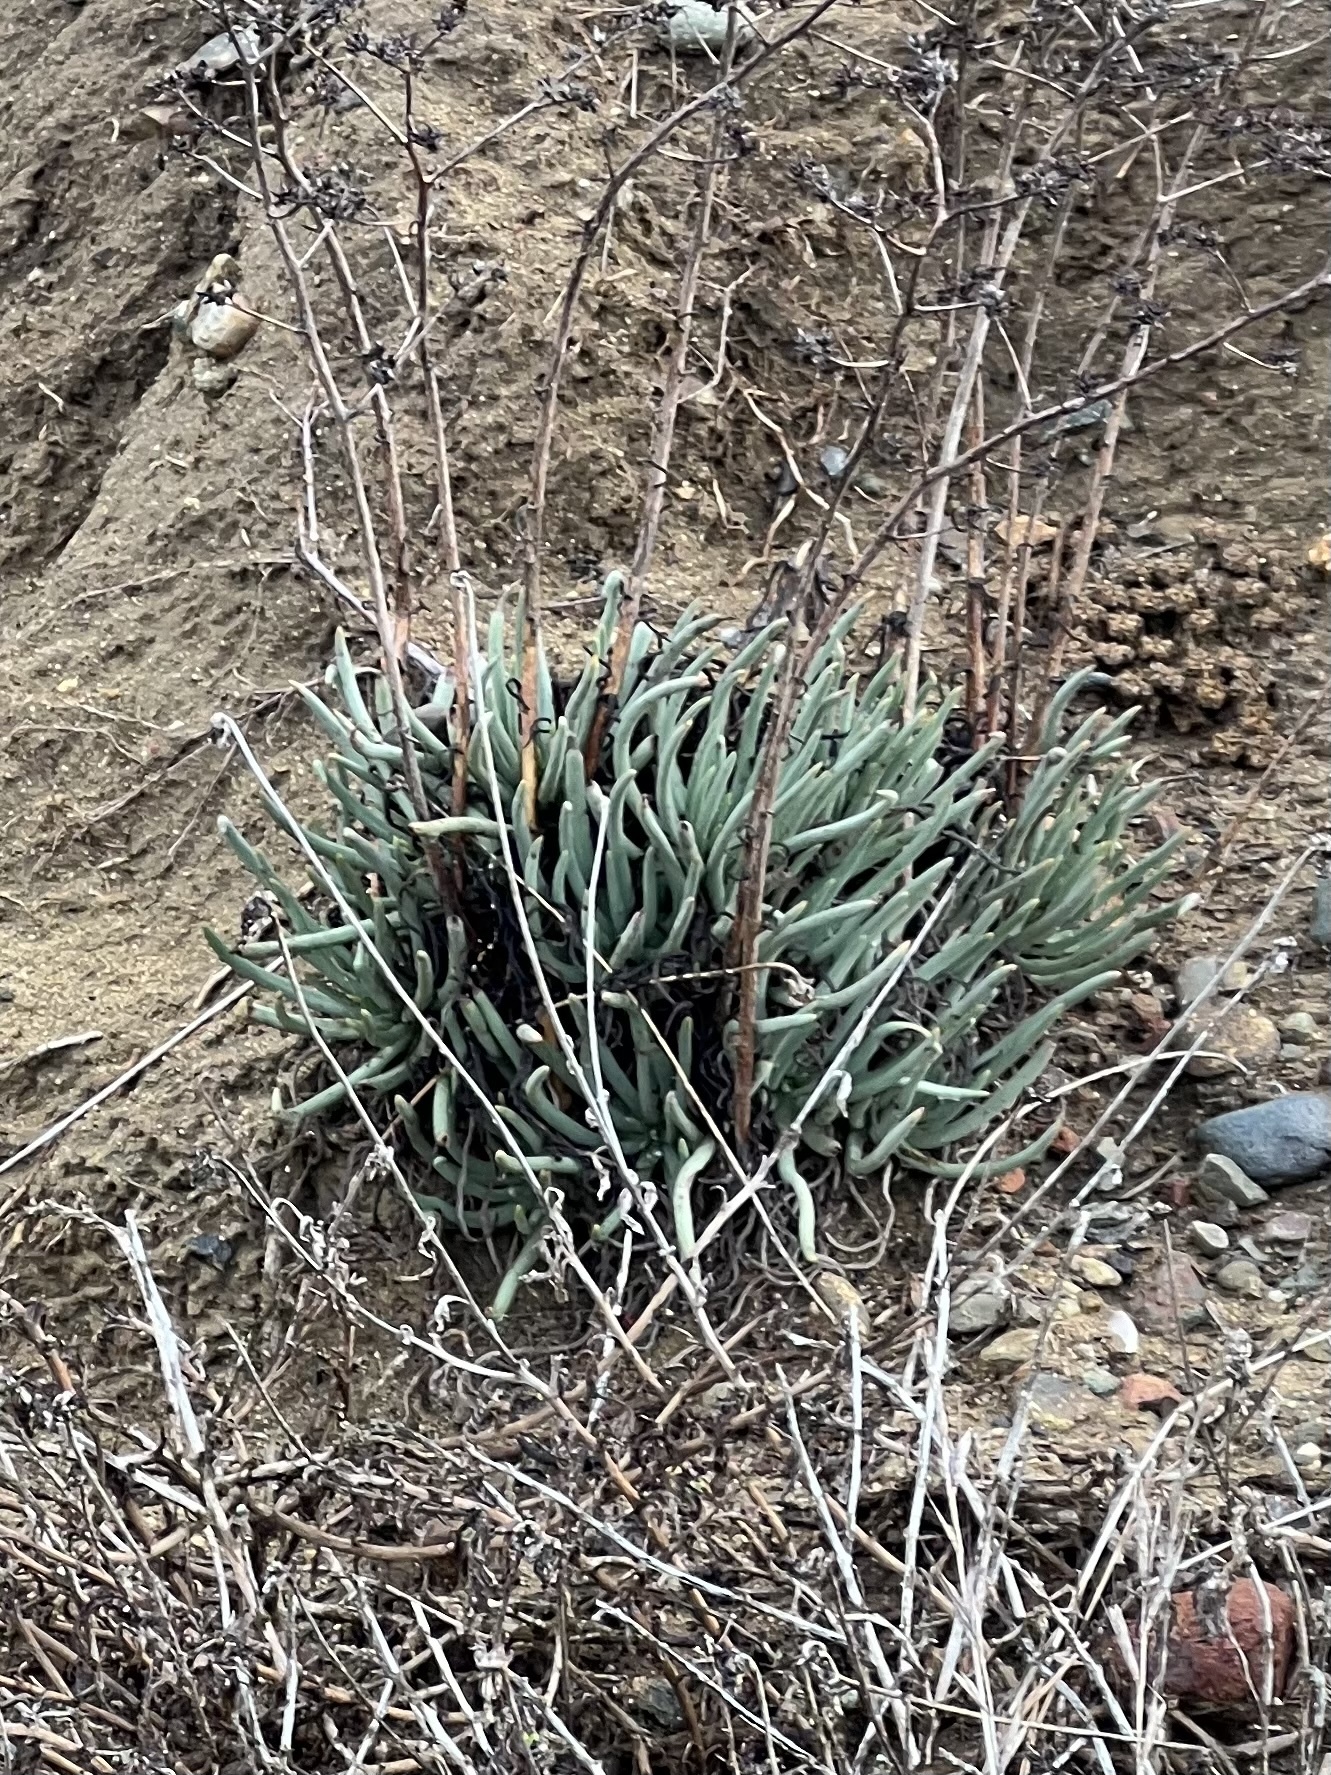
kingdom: Plantae
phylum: Tracheophyta
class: Magnoliopsida
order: Saxifragales
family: Crassulaceae
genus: Dudleya
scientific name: Dudleya edulis
